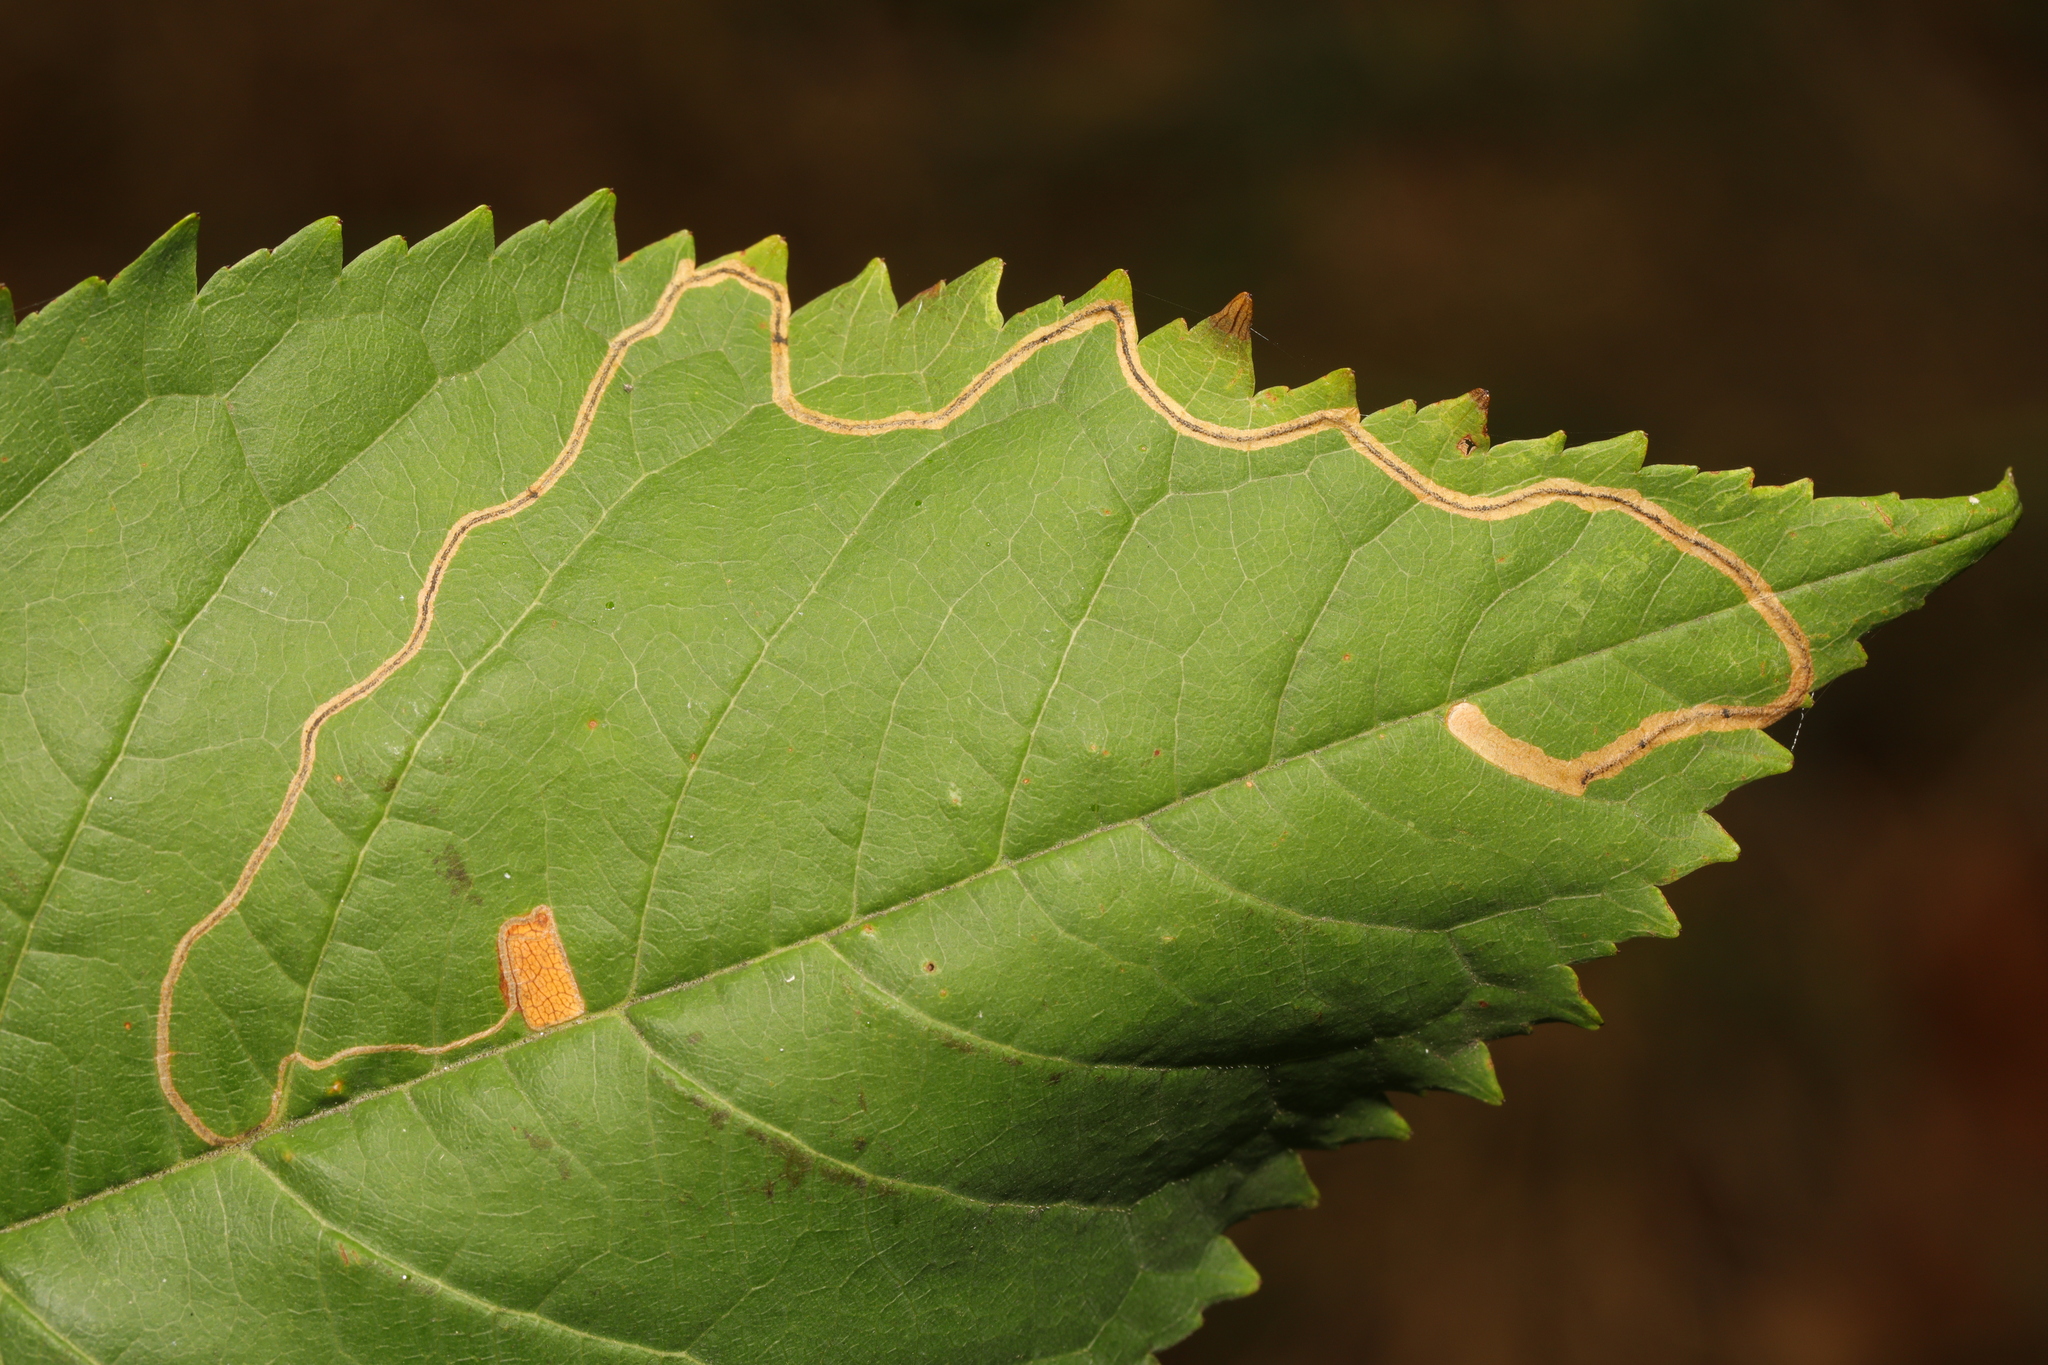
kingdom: Animalia
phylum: Arthropoda
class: Insecta
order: Lepidoptera
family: Lyonetiidae
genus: Lyonetia
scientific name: Lyonetia clerkella
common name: Apple leaf miner
